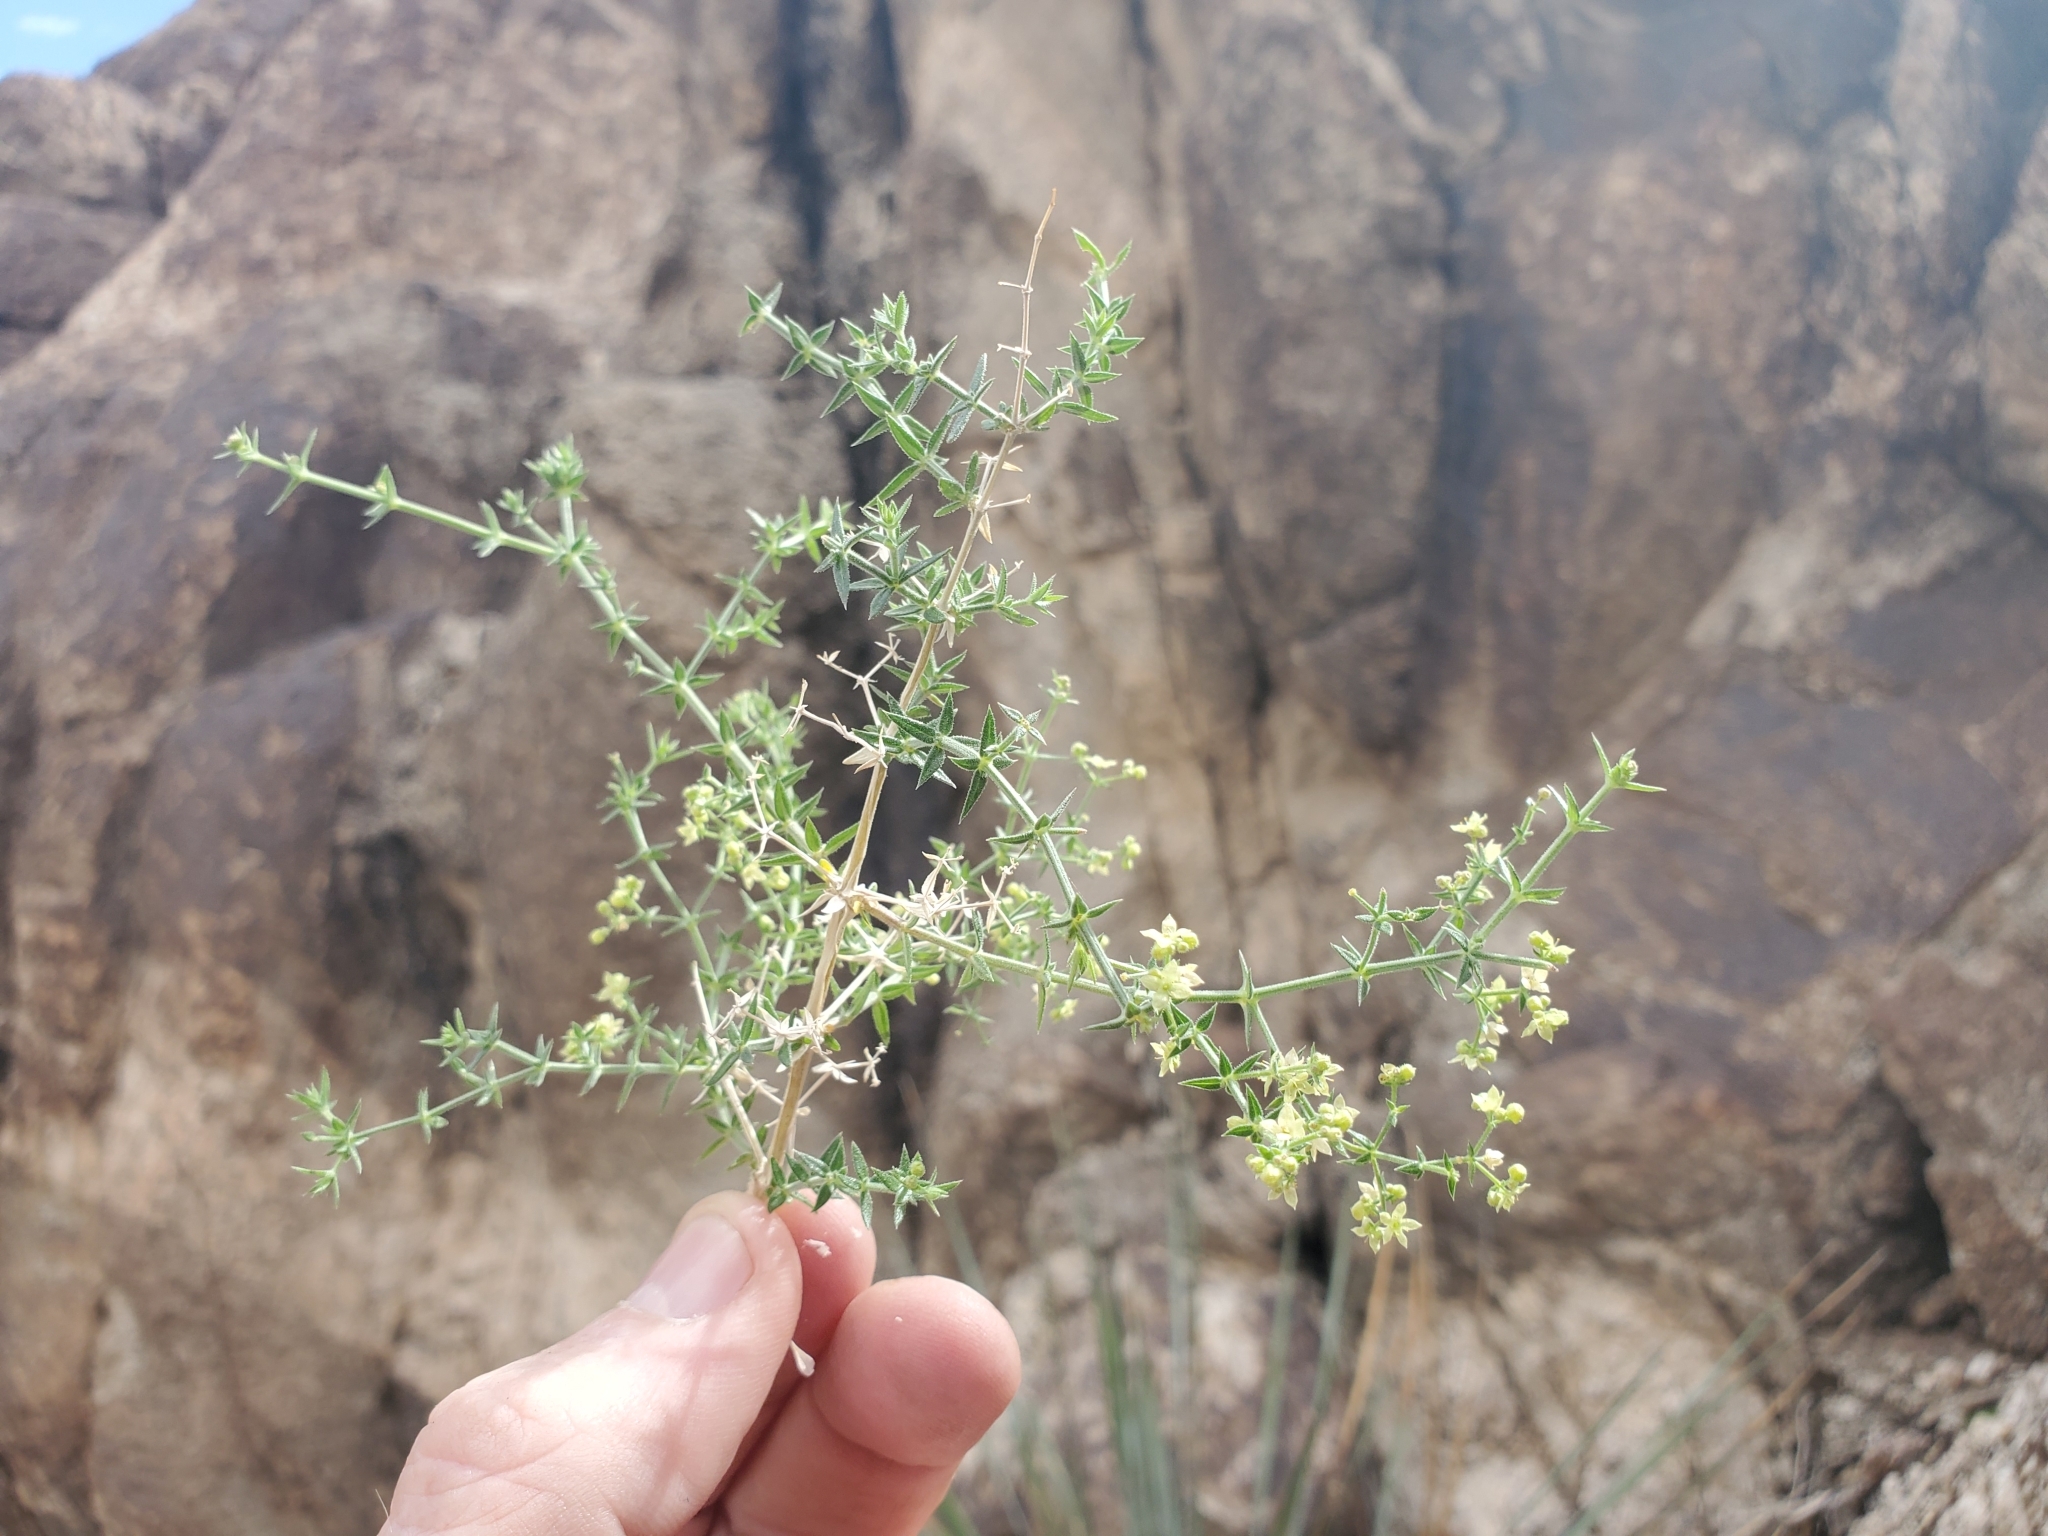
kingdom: Plantae
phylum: Tracheophyta
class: Magnoliopsida
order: Gentianales
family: Rubiaceae
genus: Galium
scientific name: Galium stellatum
